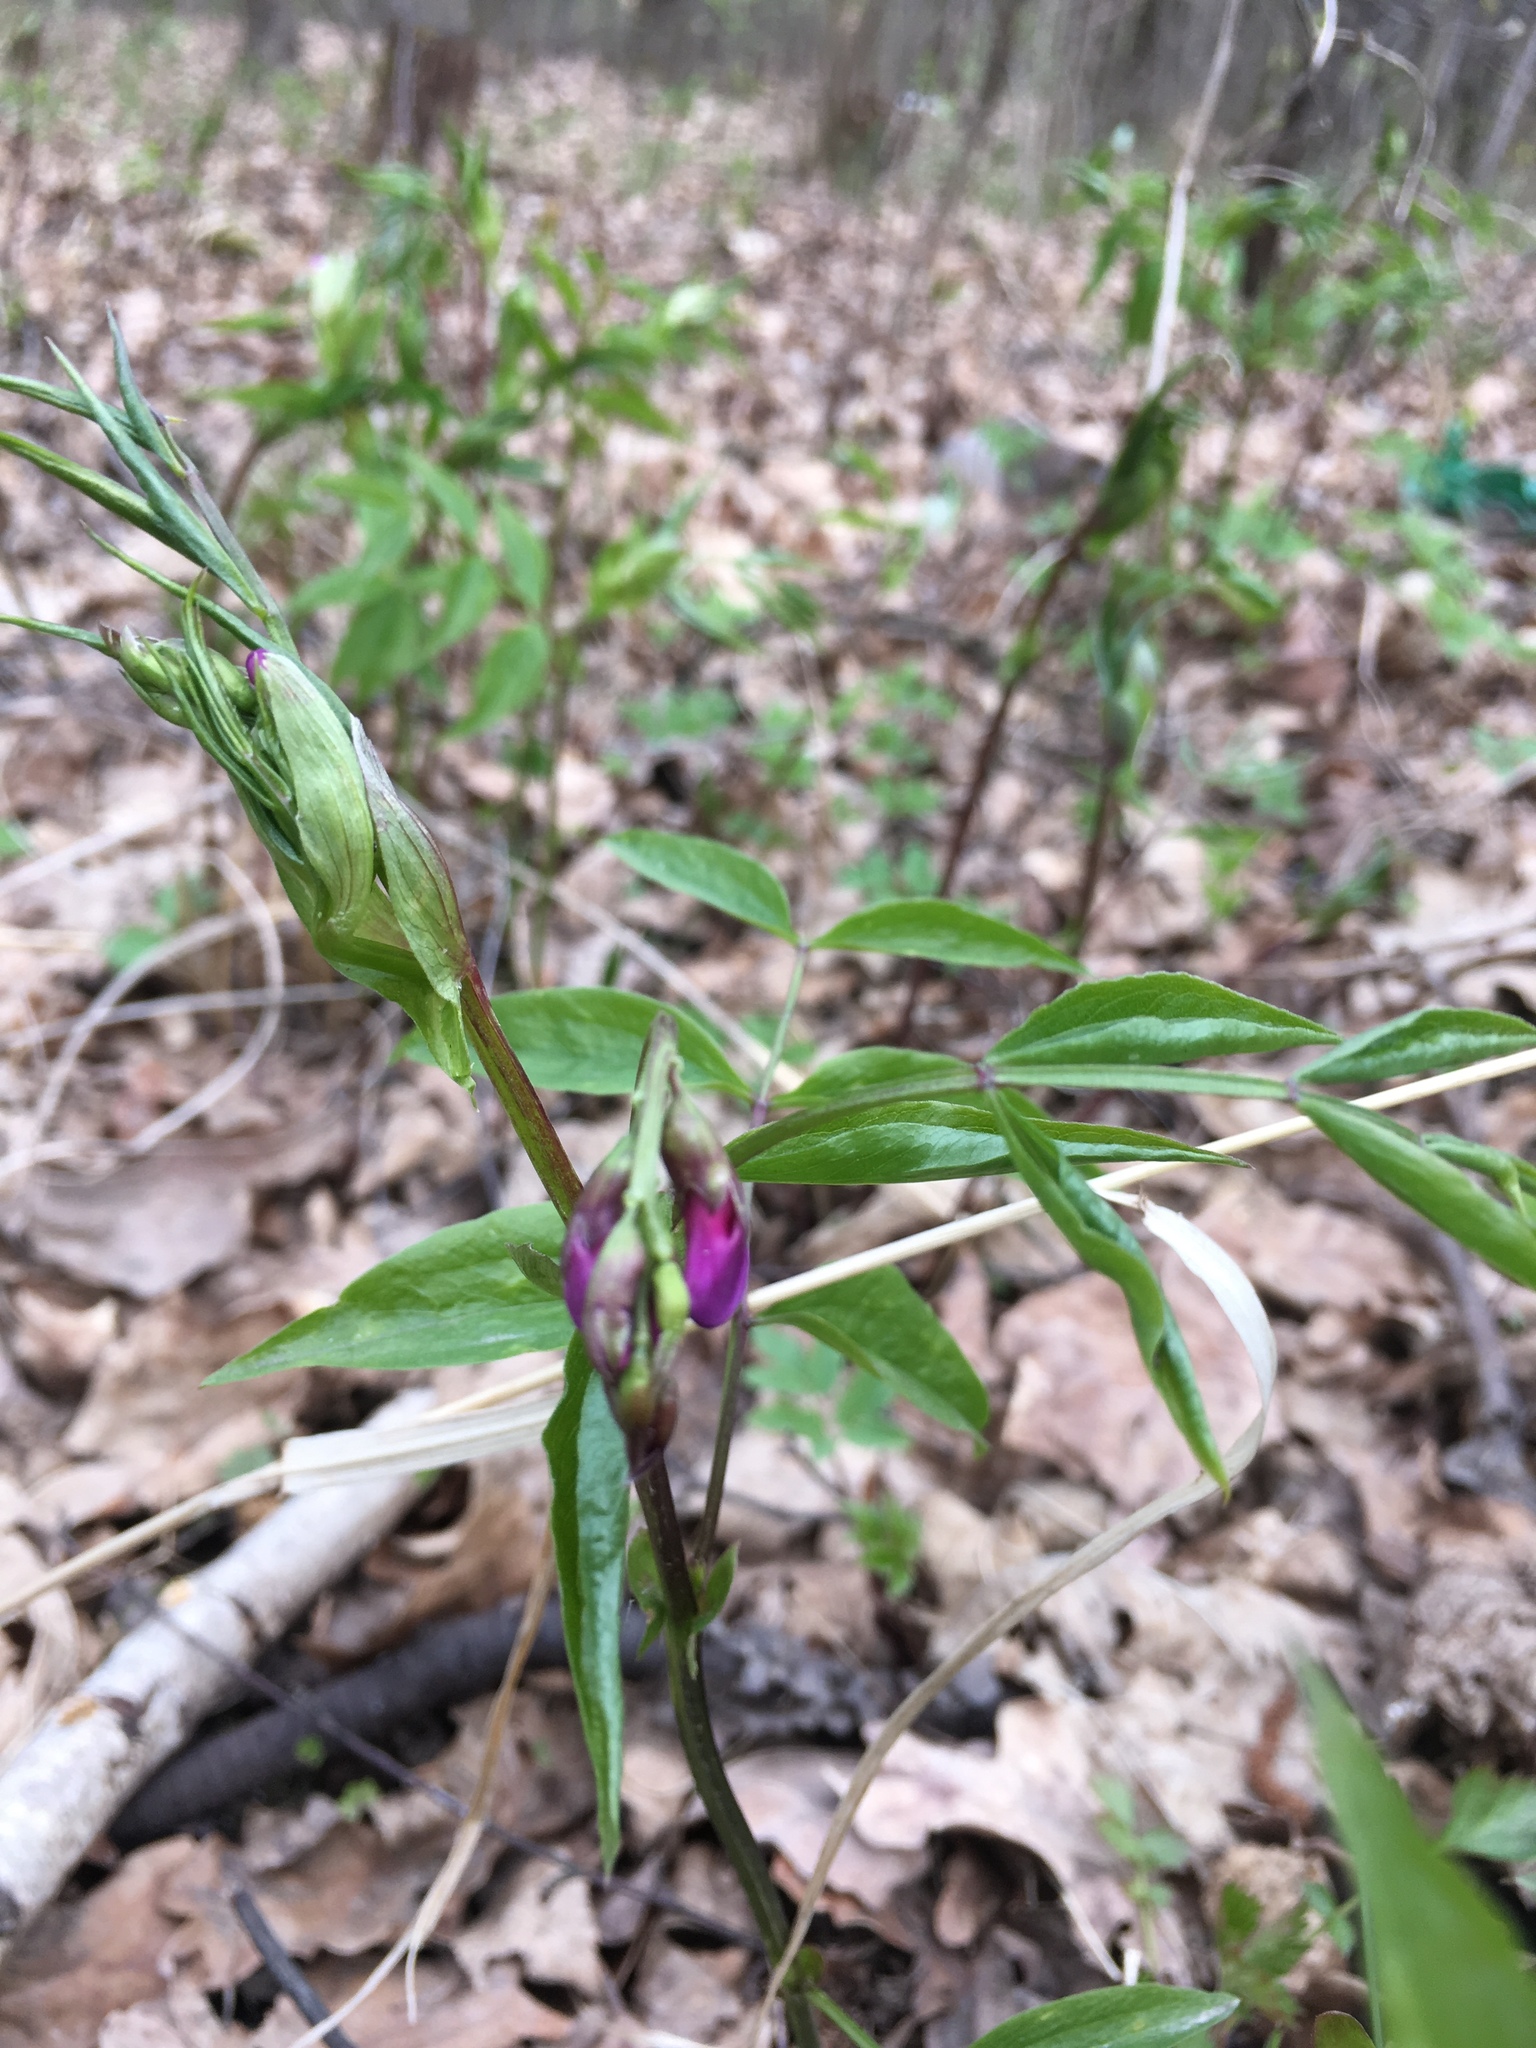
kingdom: Plantae
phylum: Tracheophyta
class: Magnoliopsida
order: Fabales
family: Fabaceae
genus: Lathyrus
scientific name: Lathyrus vernus
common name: Spring pea
